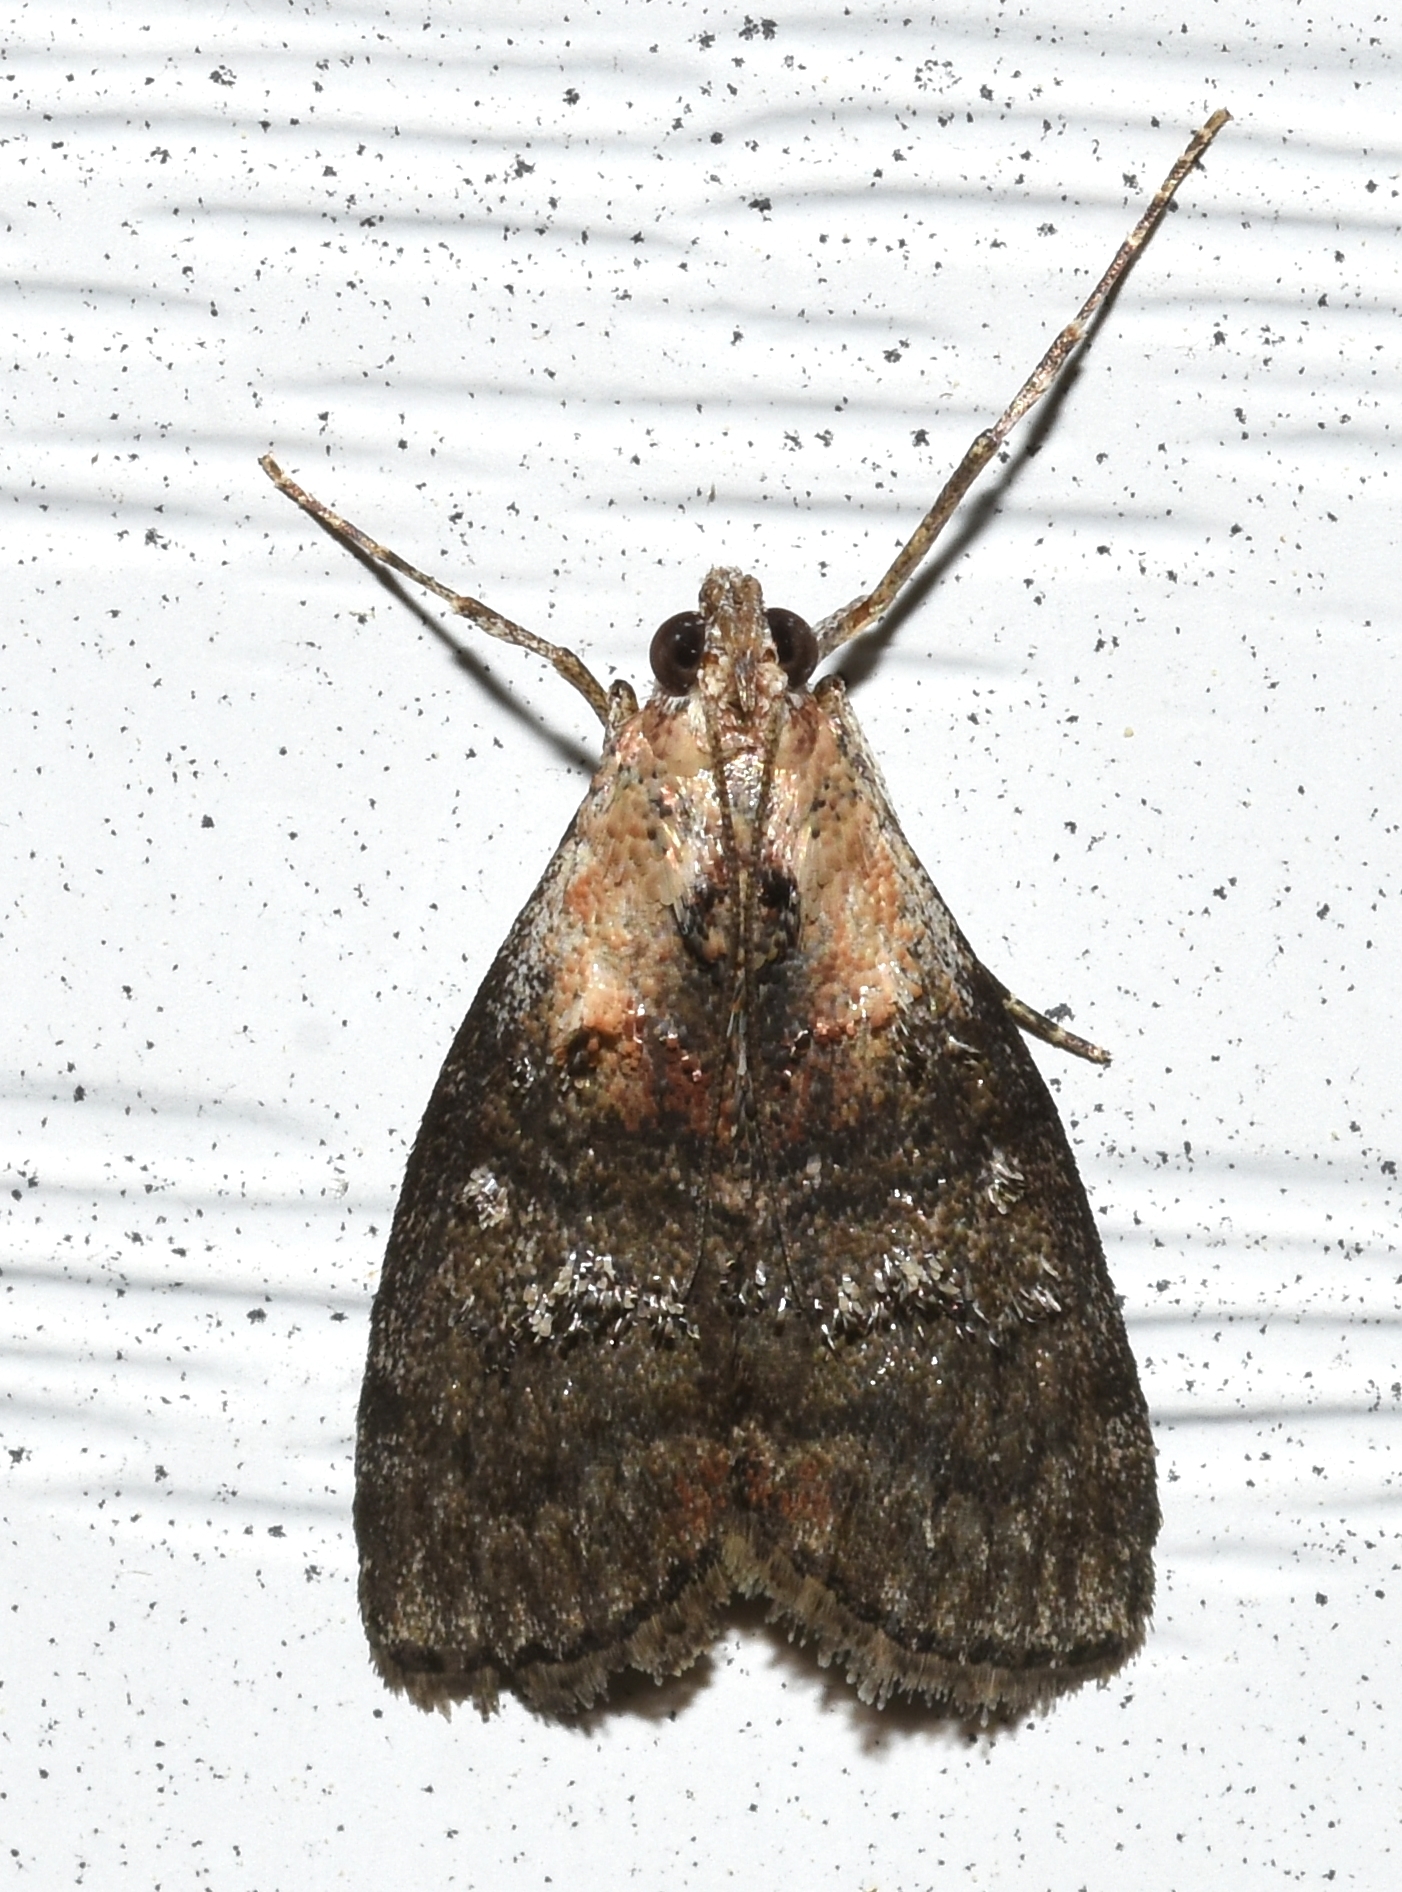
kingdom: Animalia
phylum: Arthropoda
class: Insecta
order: Lepidoptera
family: Pyralidae
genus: Pococera
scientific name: Pococera expandens
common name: Striped oak webworm moth
